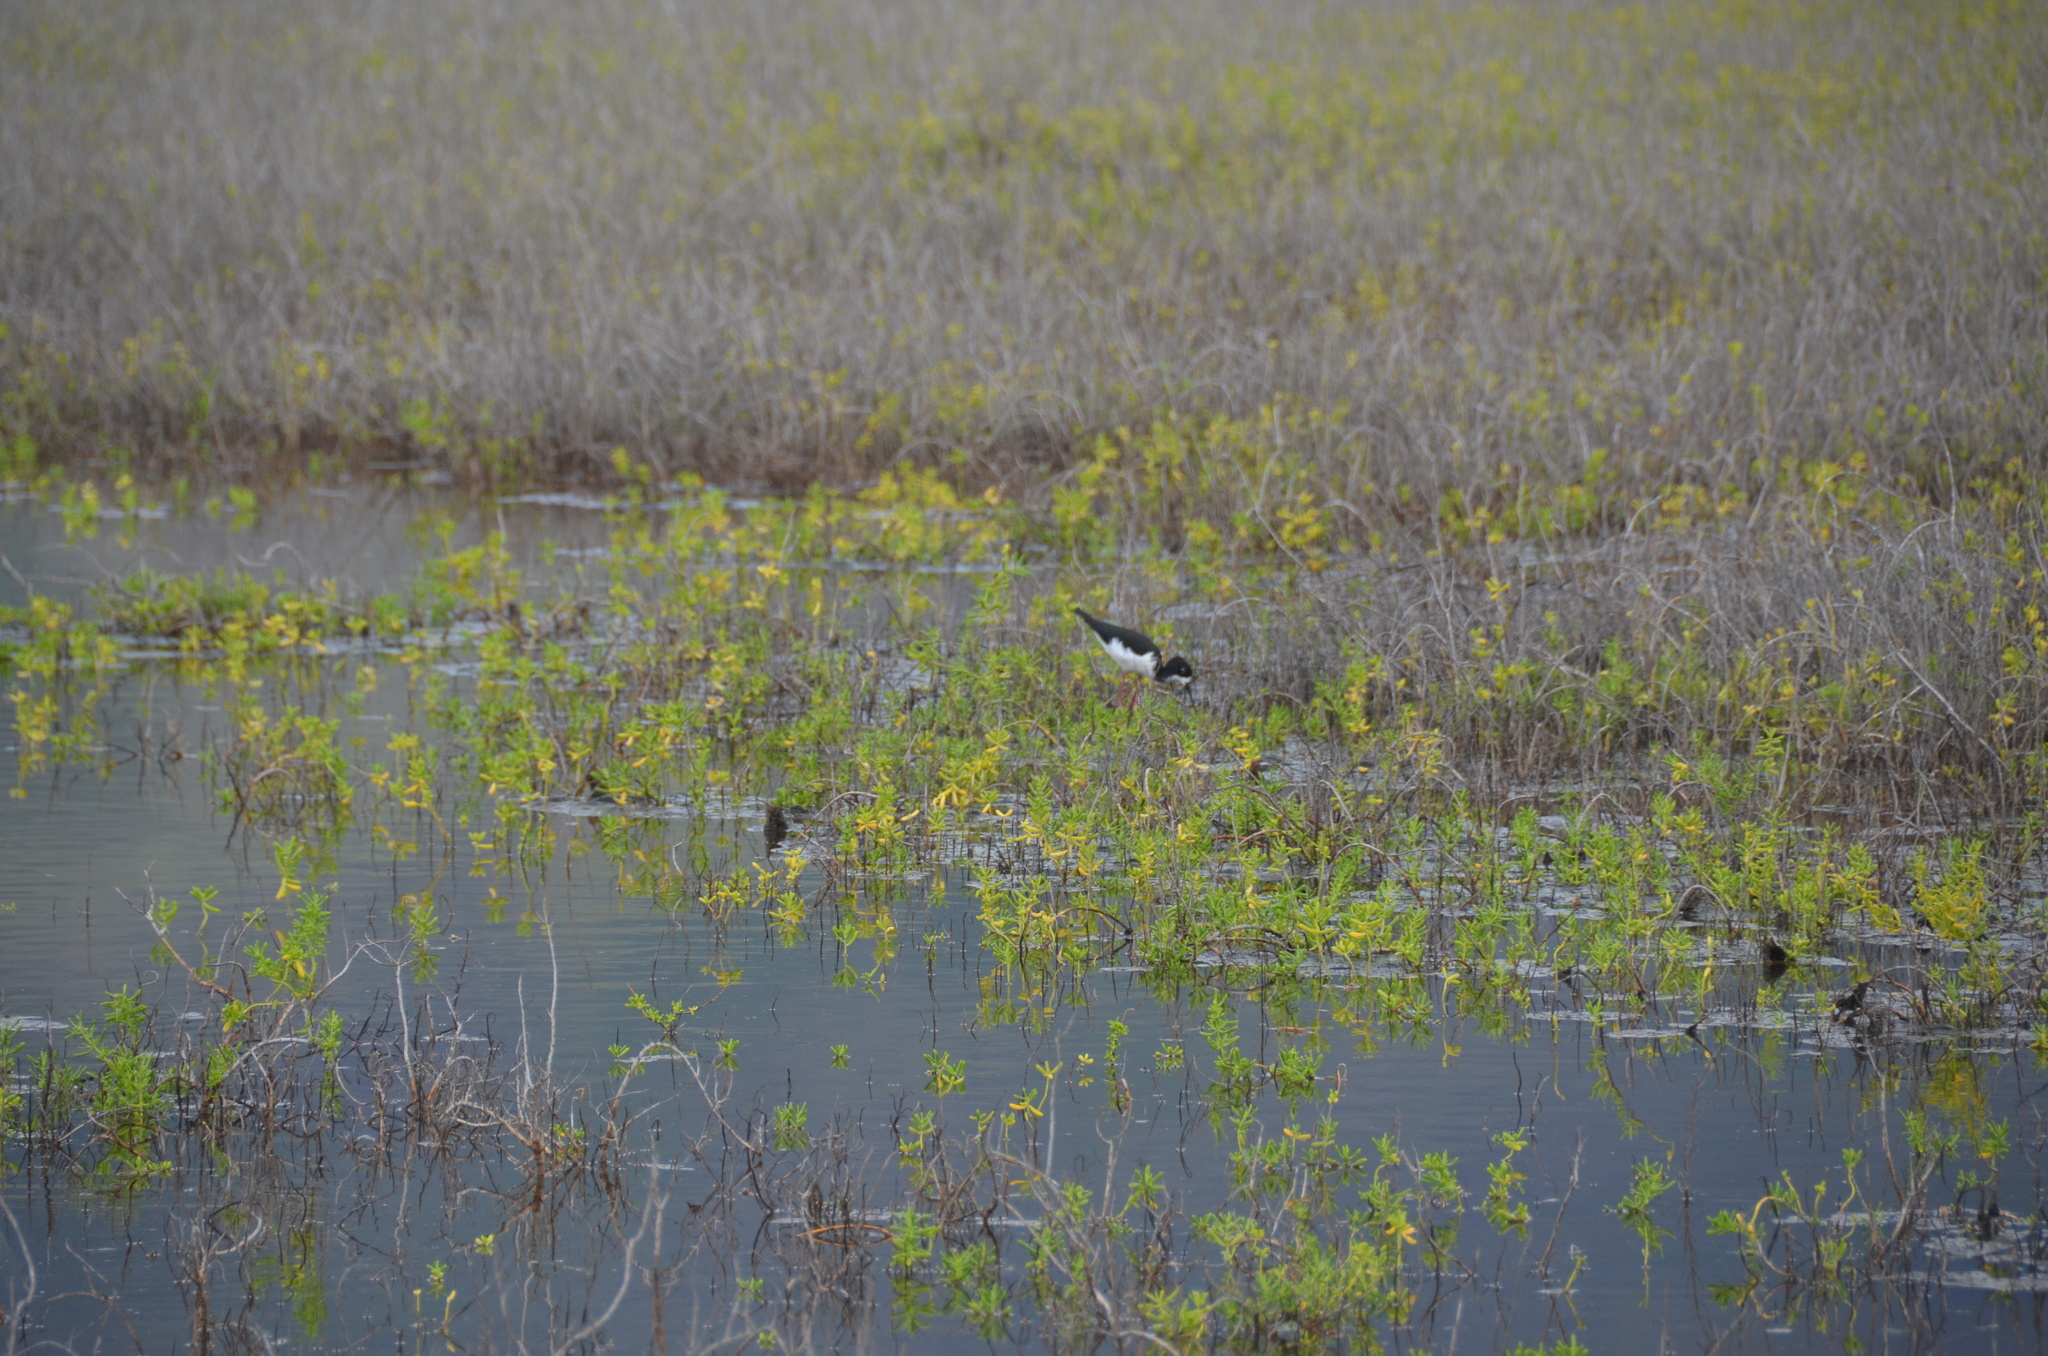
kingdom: Animalia
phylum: Chordata
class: Aves
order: Charadriiformes
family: Recurvirostridae
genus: Himantopus
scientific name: Himantopus mexicanus
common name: Black-necked stilt
